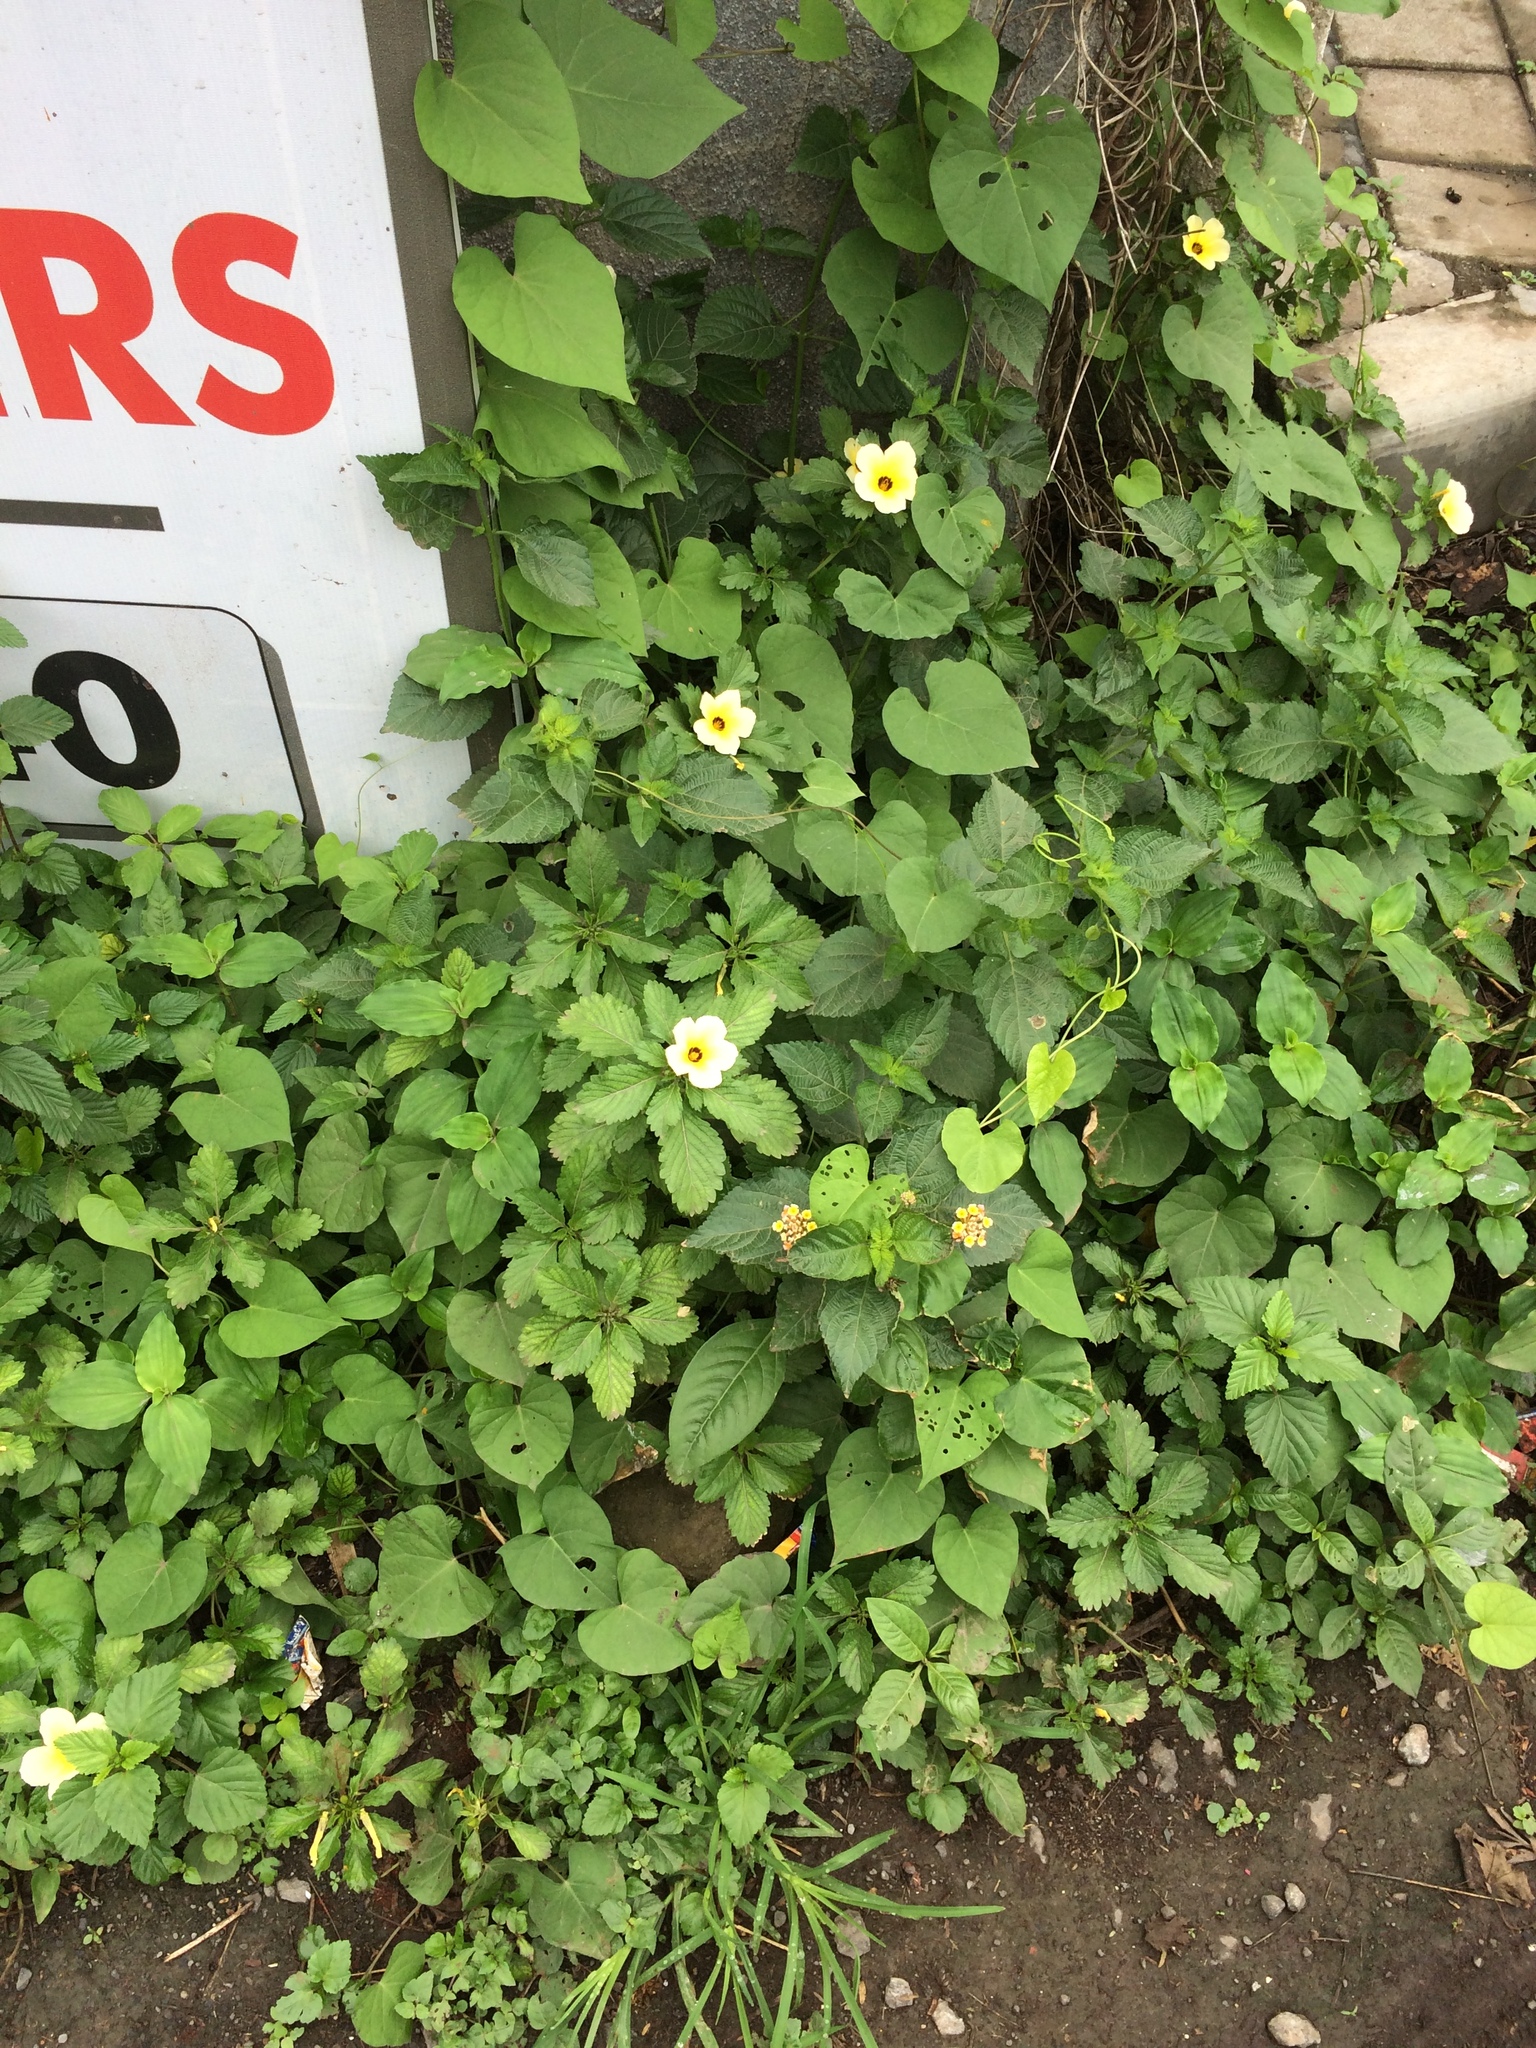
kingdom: Plantae
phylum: Tracheophyta
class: Magnoliopsida
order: Malpighiales
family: Turneraceae
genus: Turnera
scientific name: Turnera subulata
